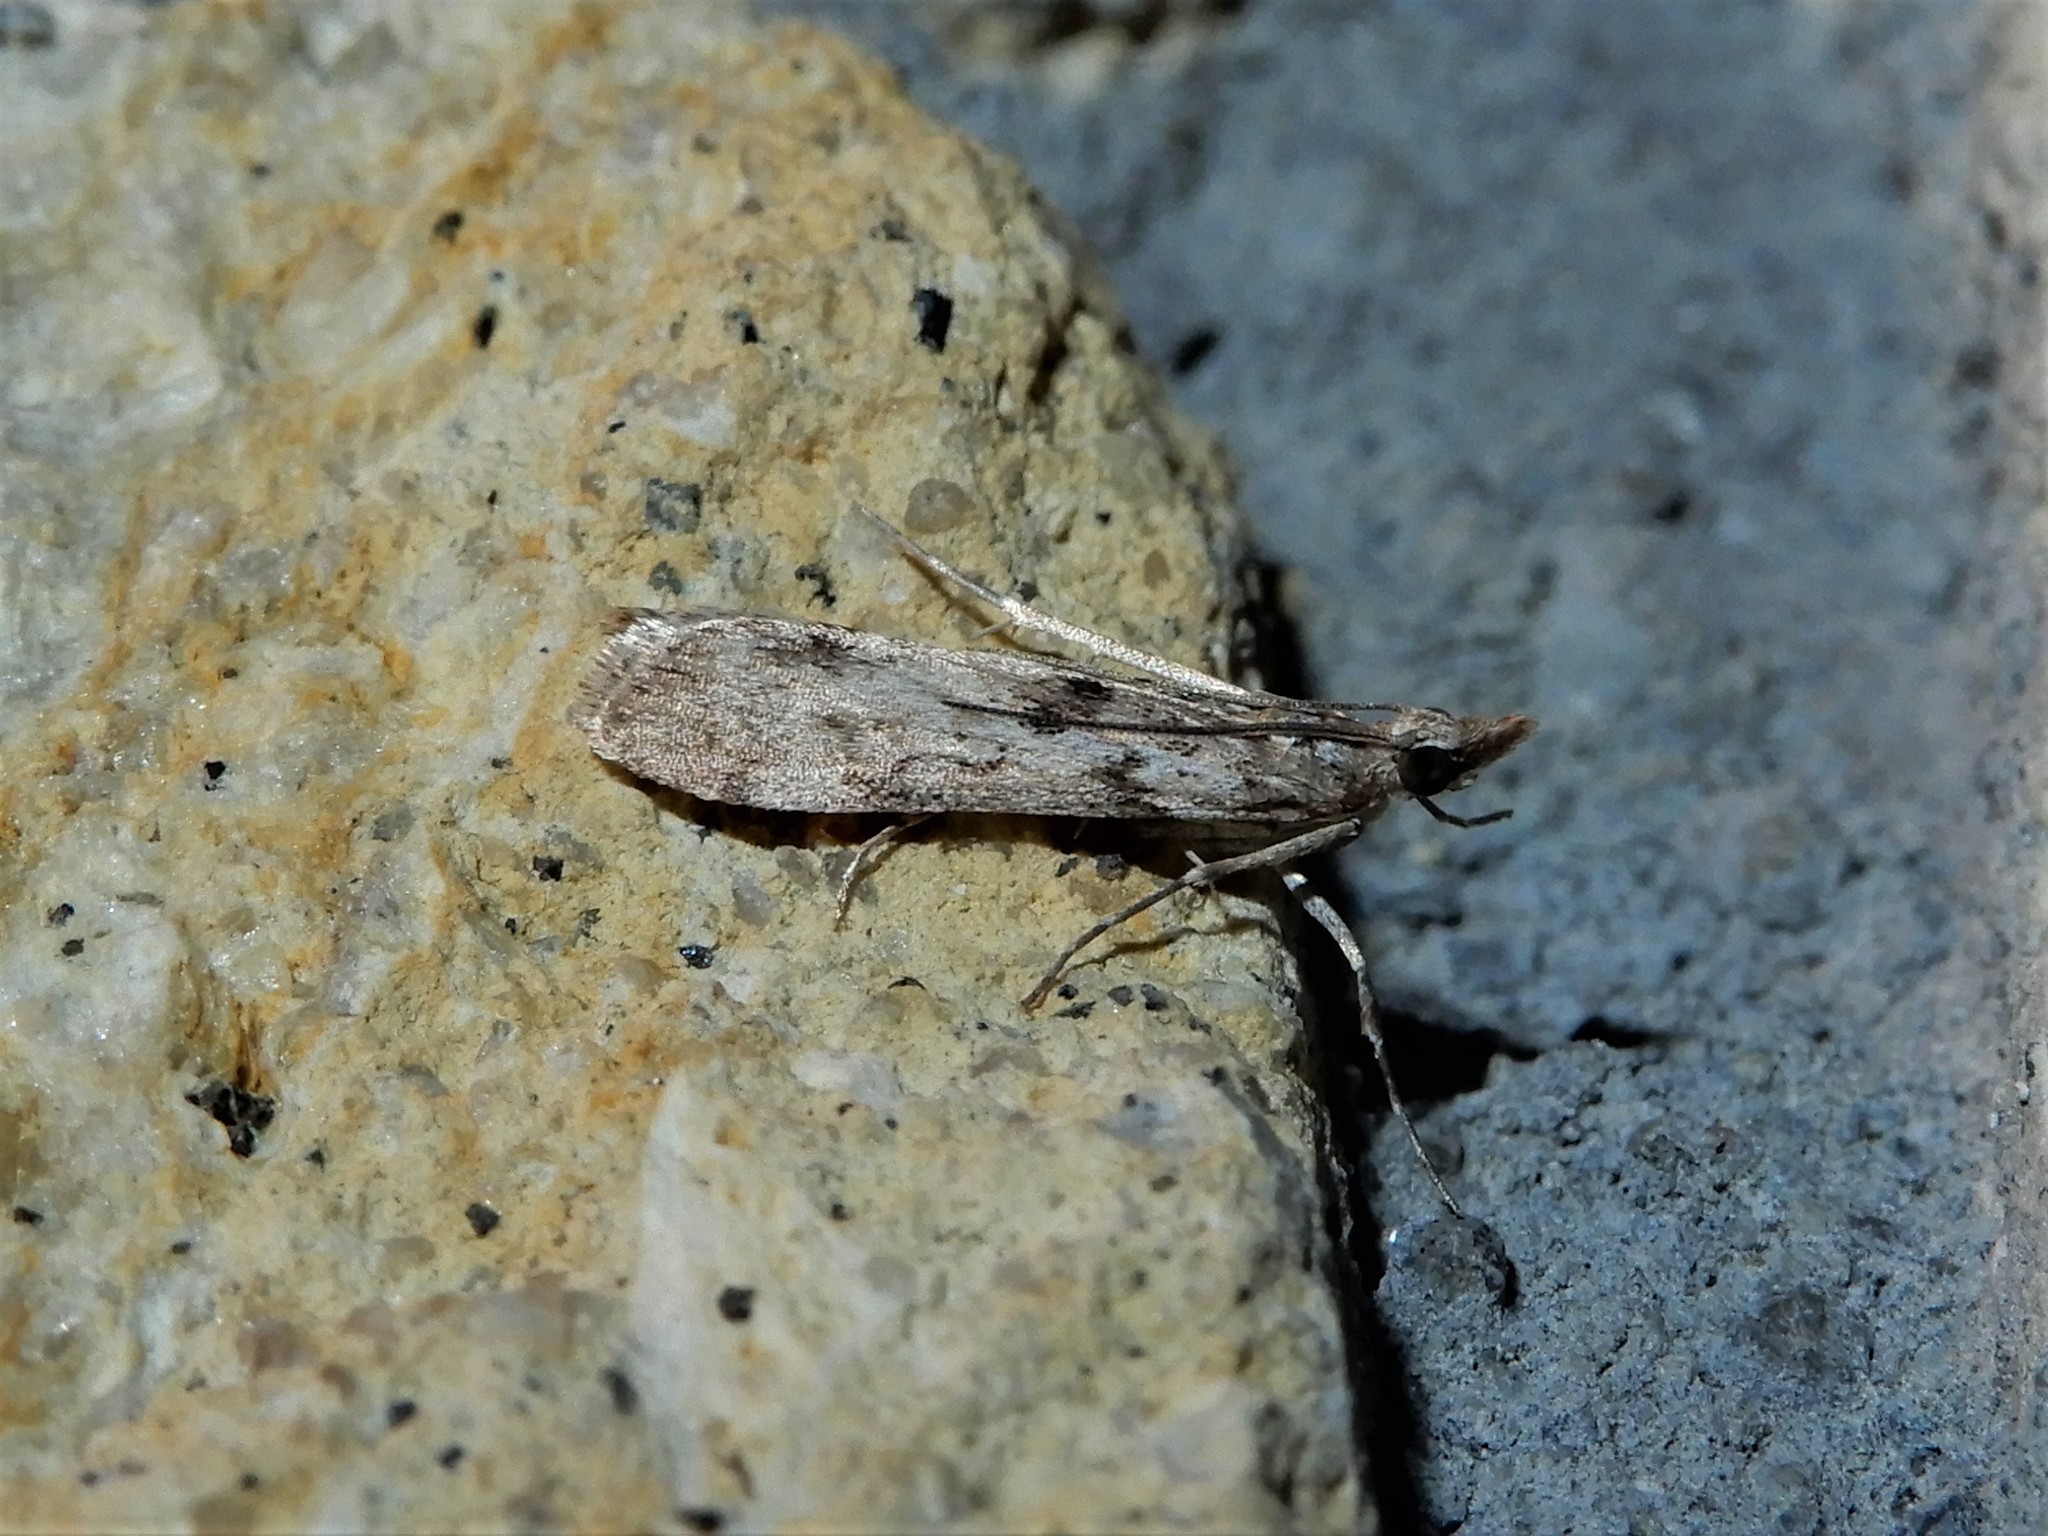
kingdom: Animalia
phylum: Arthropoda
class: Insecta
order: Lepidoptera
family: Crambidae
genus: Eudonia
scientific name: Eudonia leptalea
